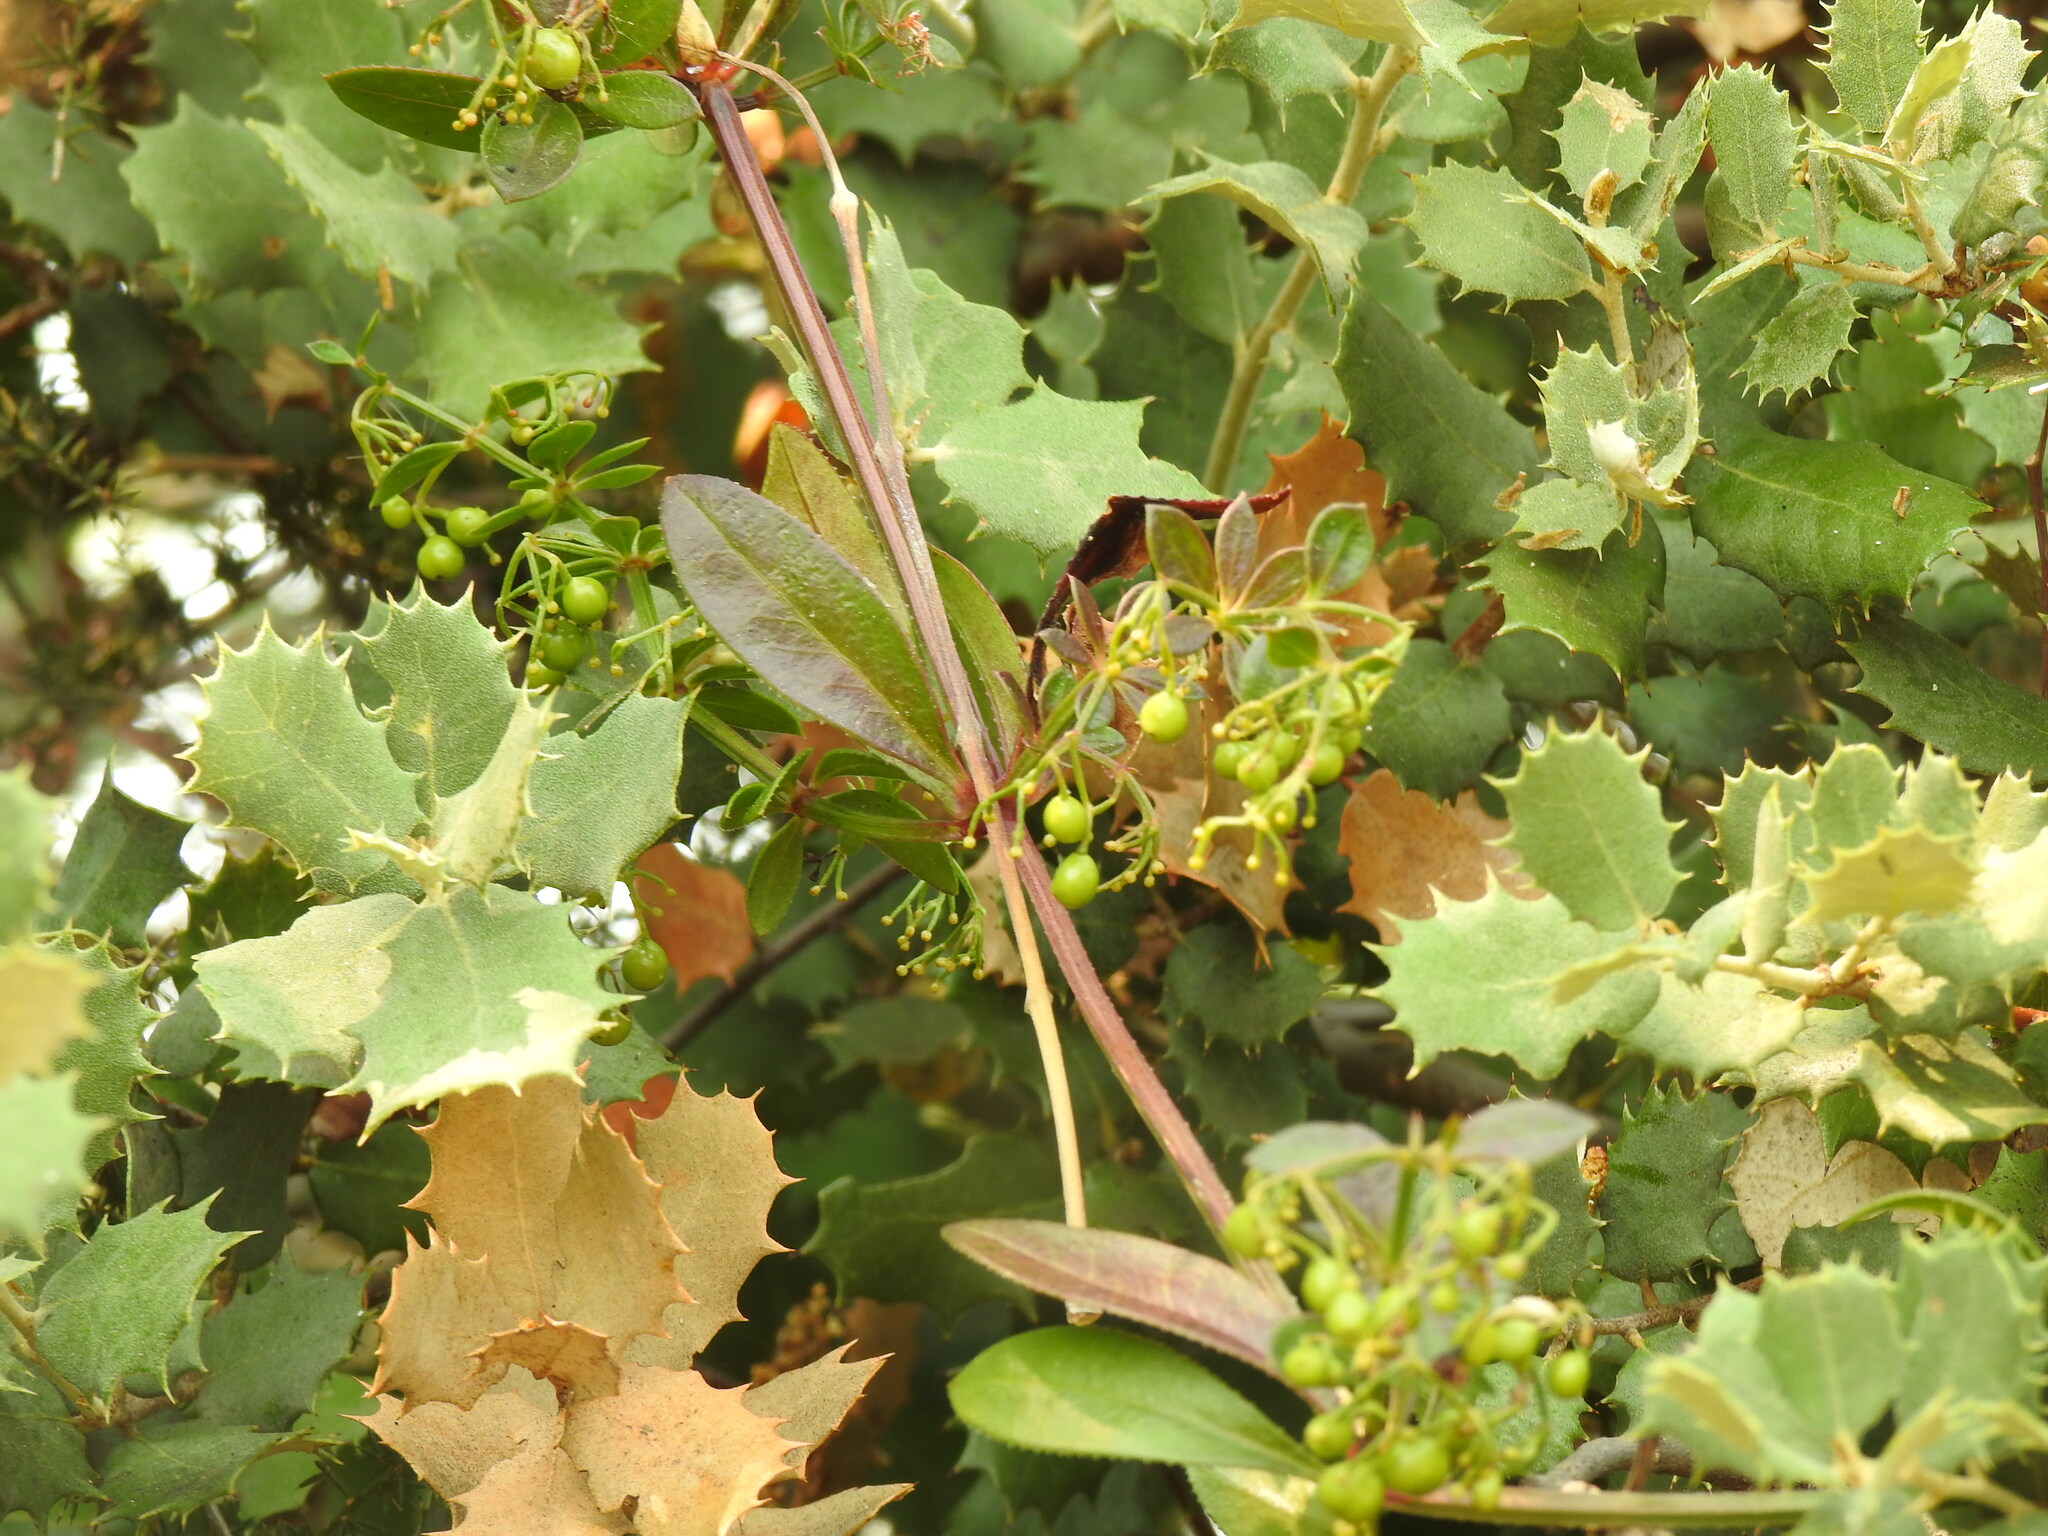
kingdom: Plantae
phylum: Tracheophyta
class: Magnoliopsida
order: Gentianales
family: Rubiaceae
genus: Rubia
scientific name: Rubia peregrina
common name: Wild madder
